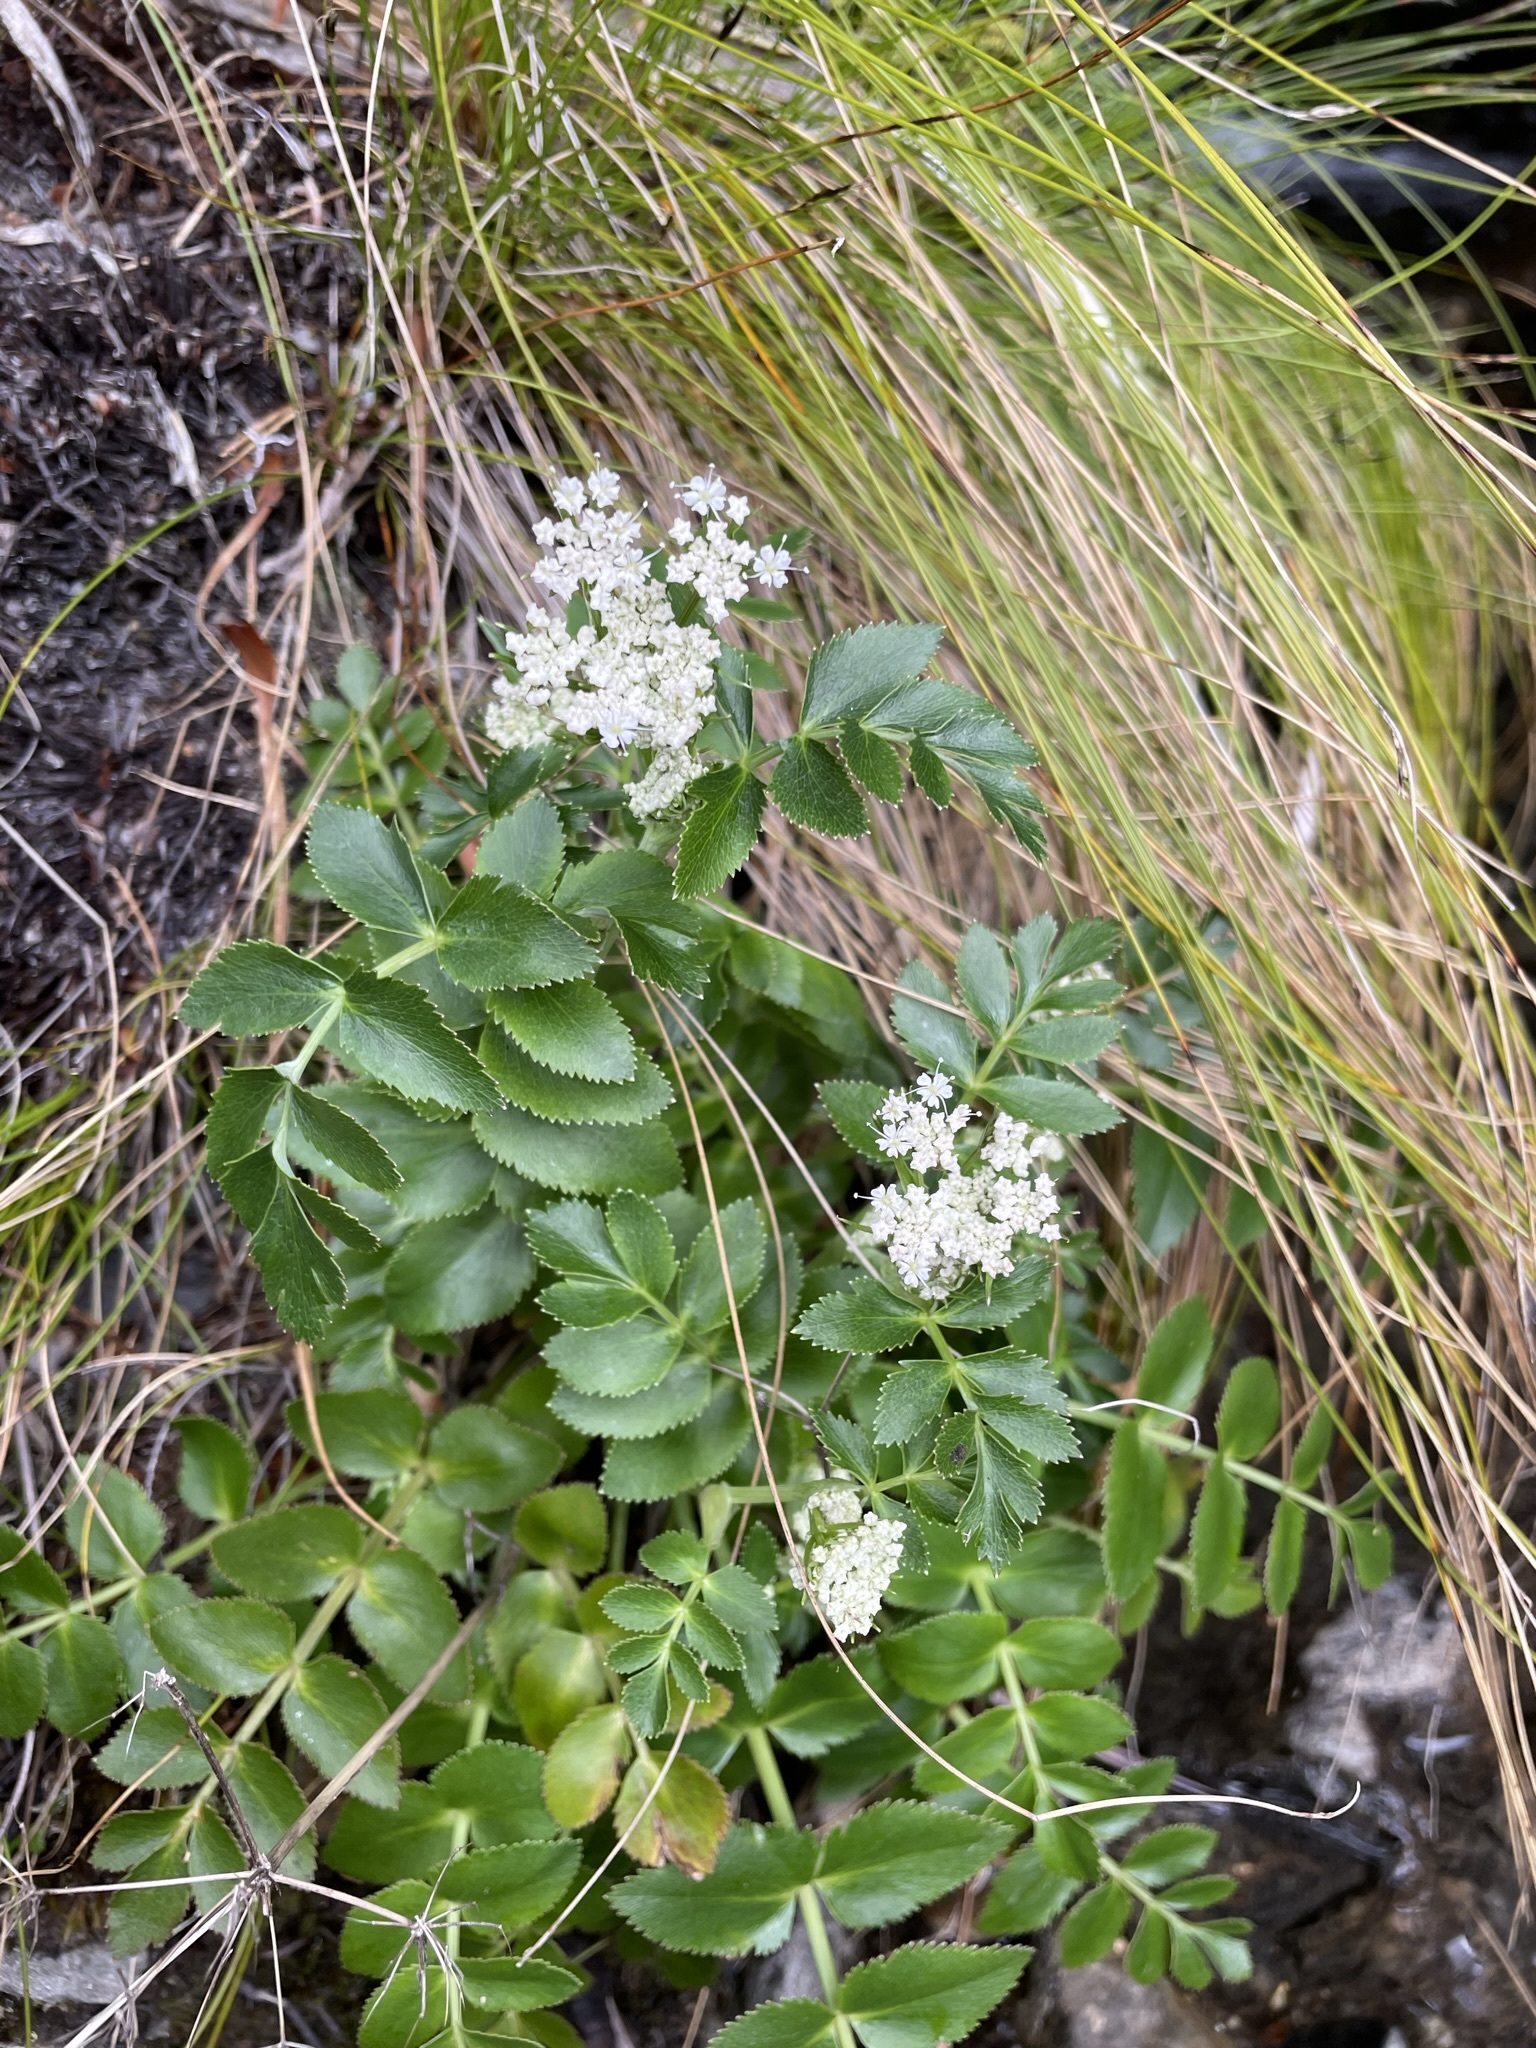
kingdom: Plantae
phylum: Tracheophyta
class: Magnoliopsida
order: Apiales
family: Apiaceae
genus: Gingidia
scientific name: Gingidia montana
